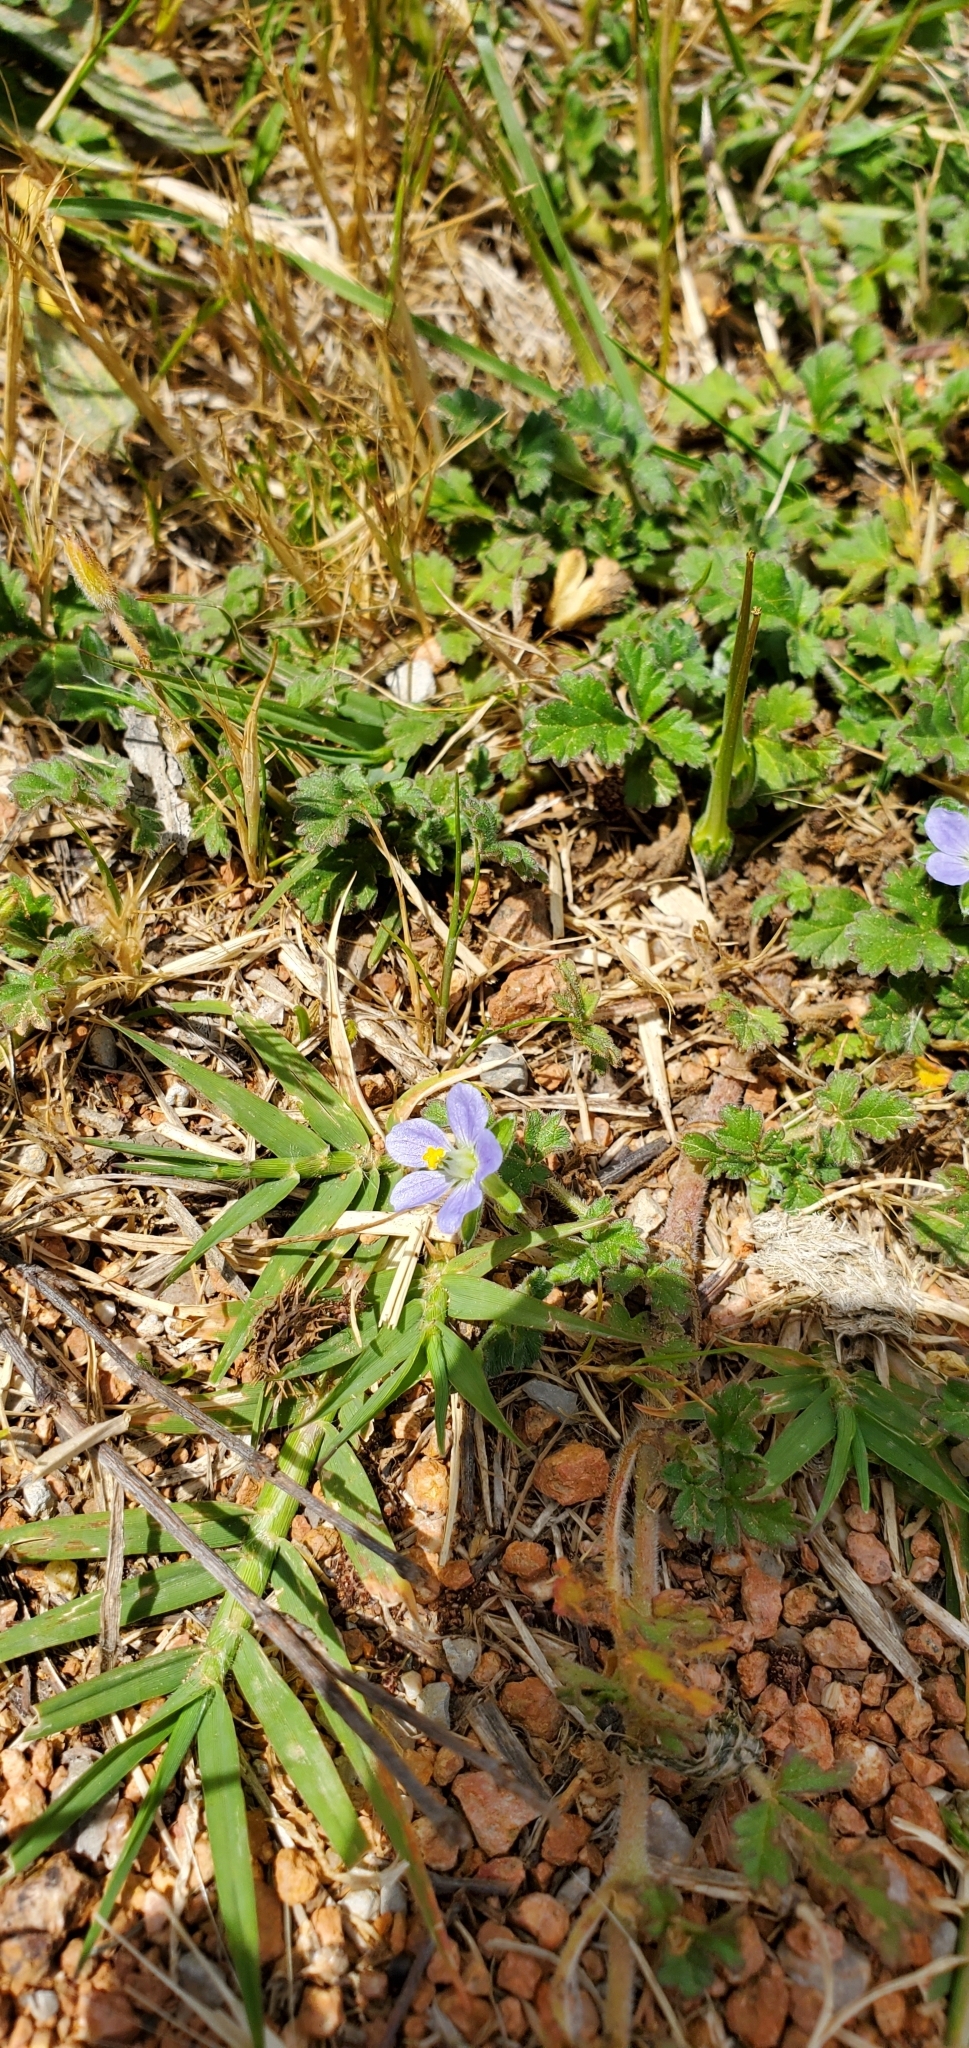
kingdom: Plantae
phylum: Tracheophyta
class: Magnoliopsida
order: Geraniales
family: Geraniaceae
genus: Erodium
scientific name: Erodium crinitum
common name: Eastern stork's-bill
